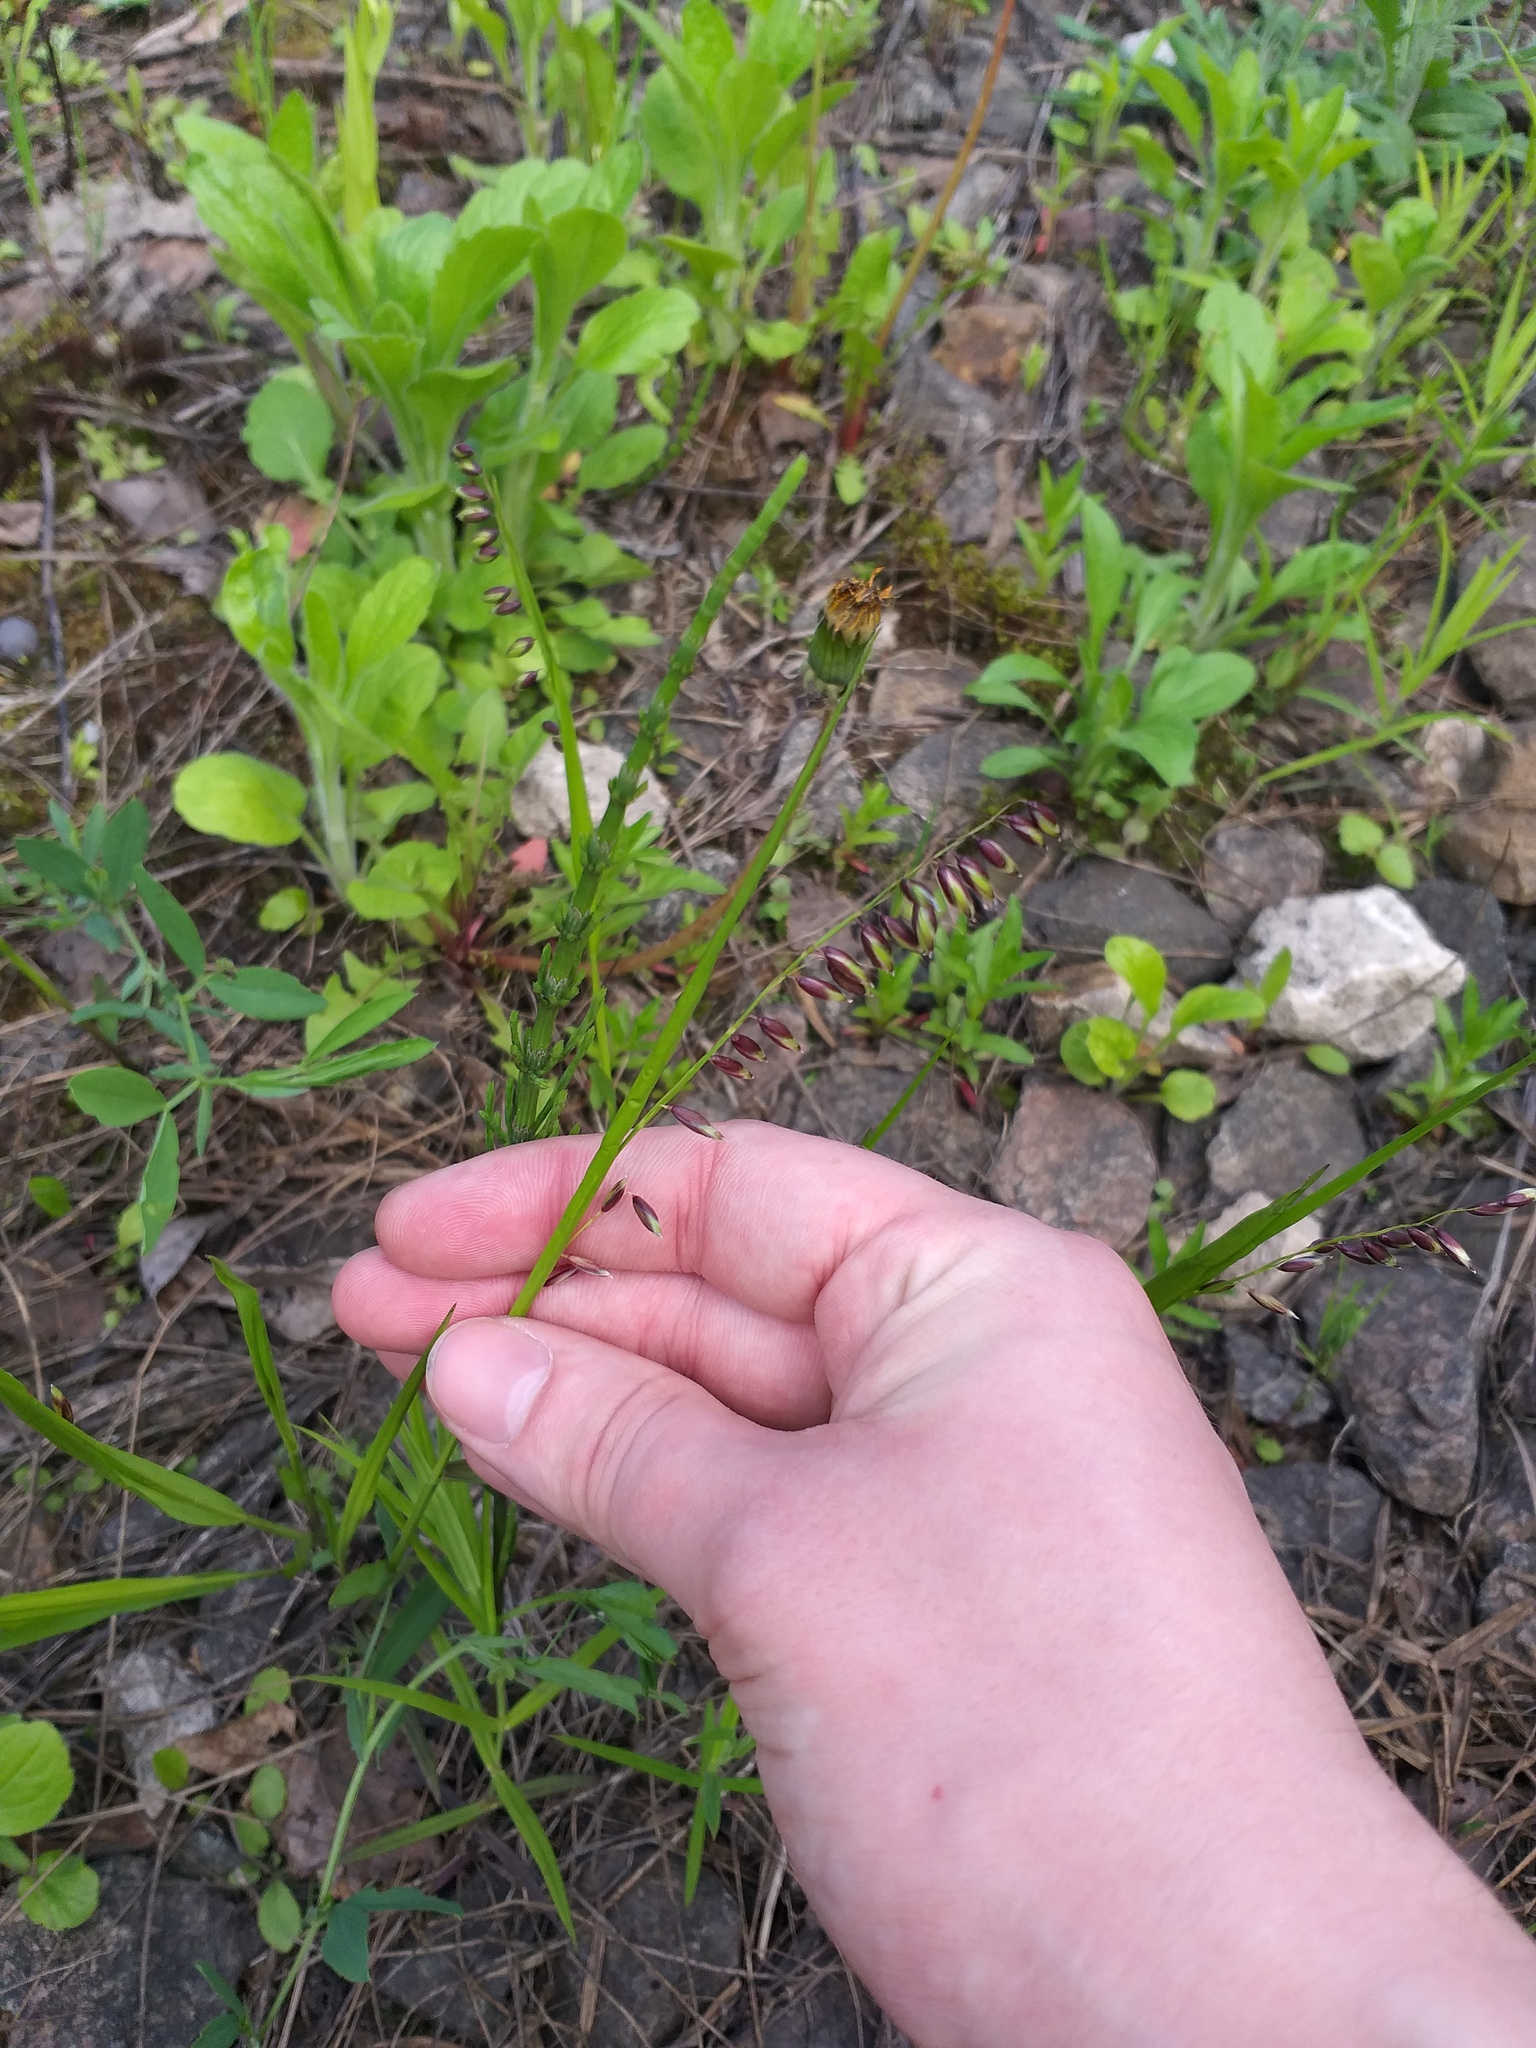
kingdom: Plantae
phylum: Tracheophyta
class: Liliopsida
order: Poales
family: Poaceae
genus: Melica
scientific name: Melica nutans
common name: Mountain melick
